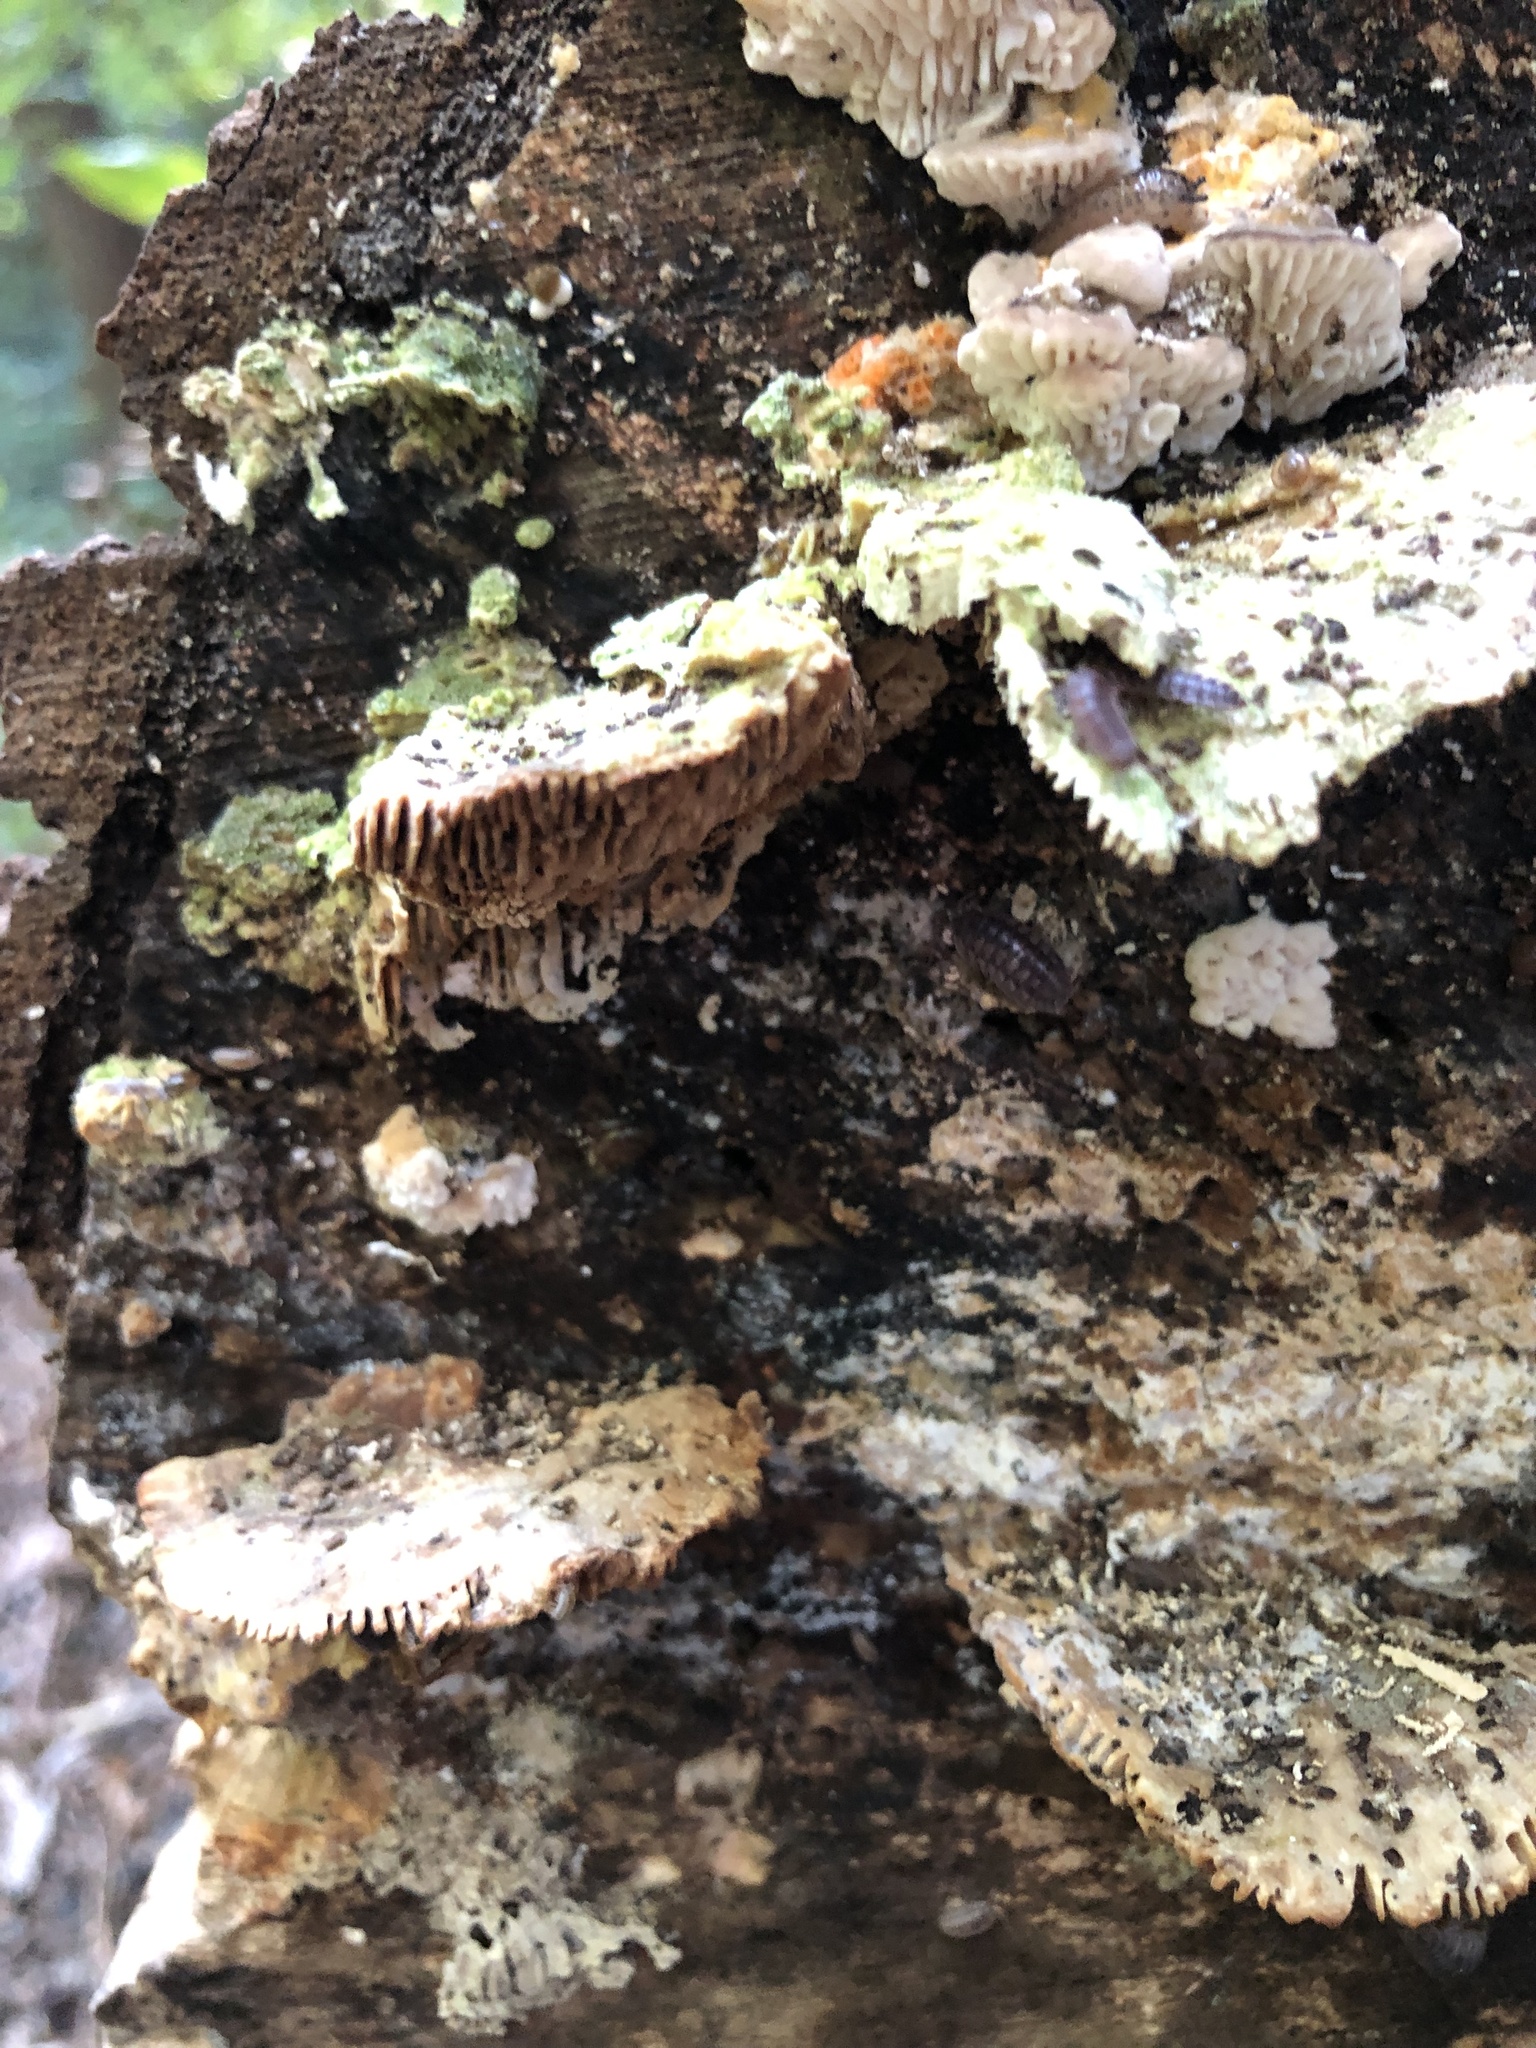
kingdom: Fungi
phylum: Basidiomycota
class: Agaricomycetes
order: Polyporales
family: Polyporaceae
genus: Lenzites
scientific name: Lenzites betulinus
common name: Birch mazegill
